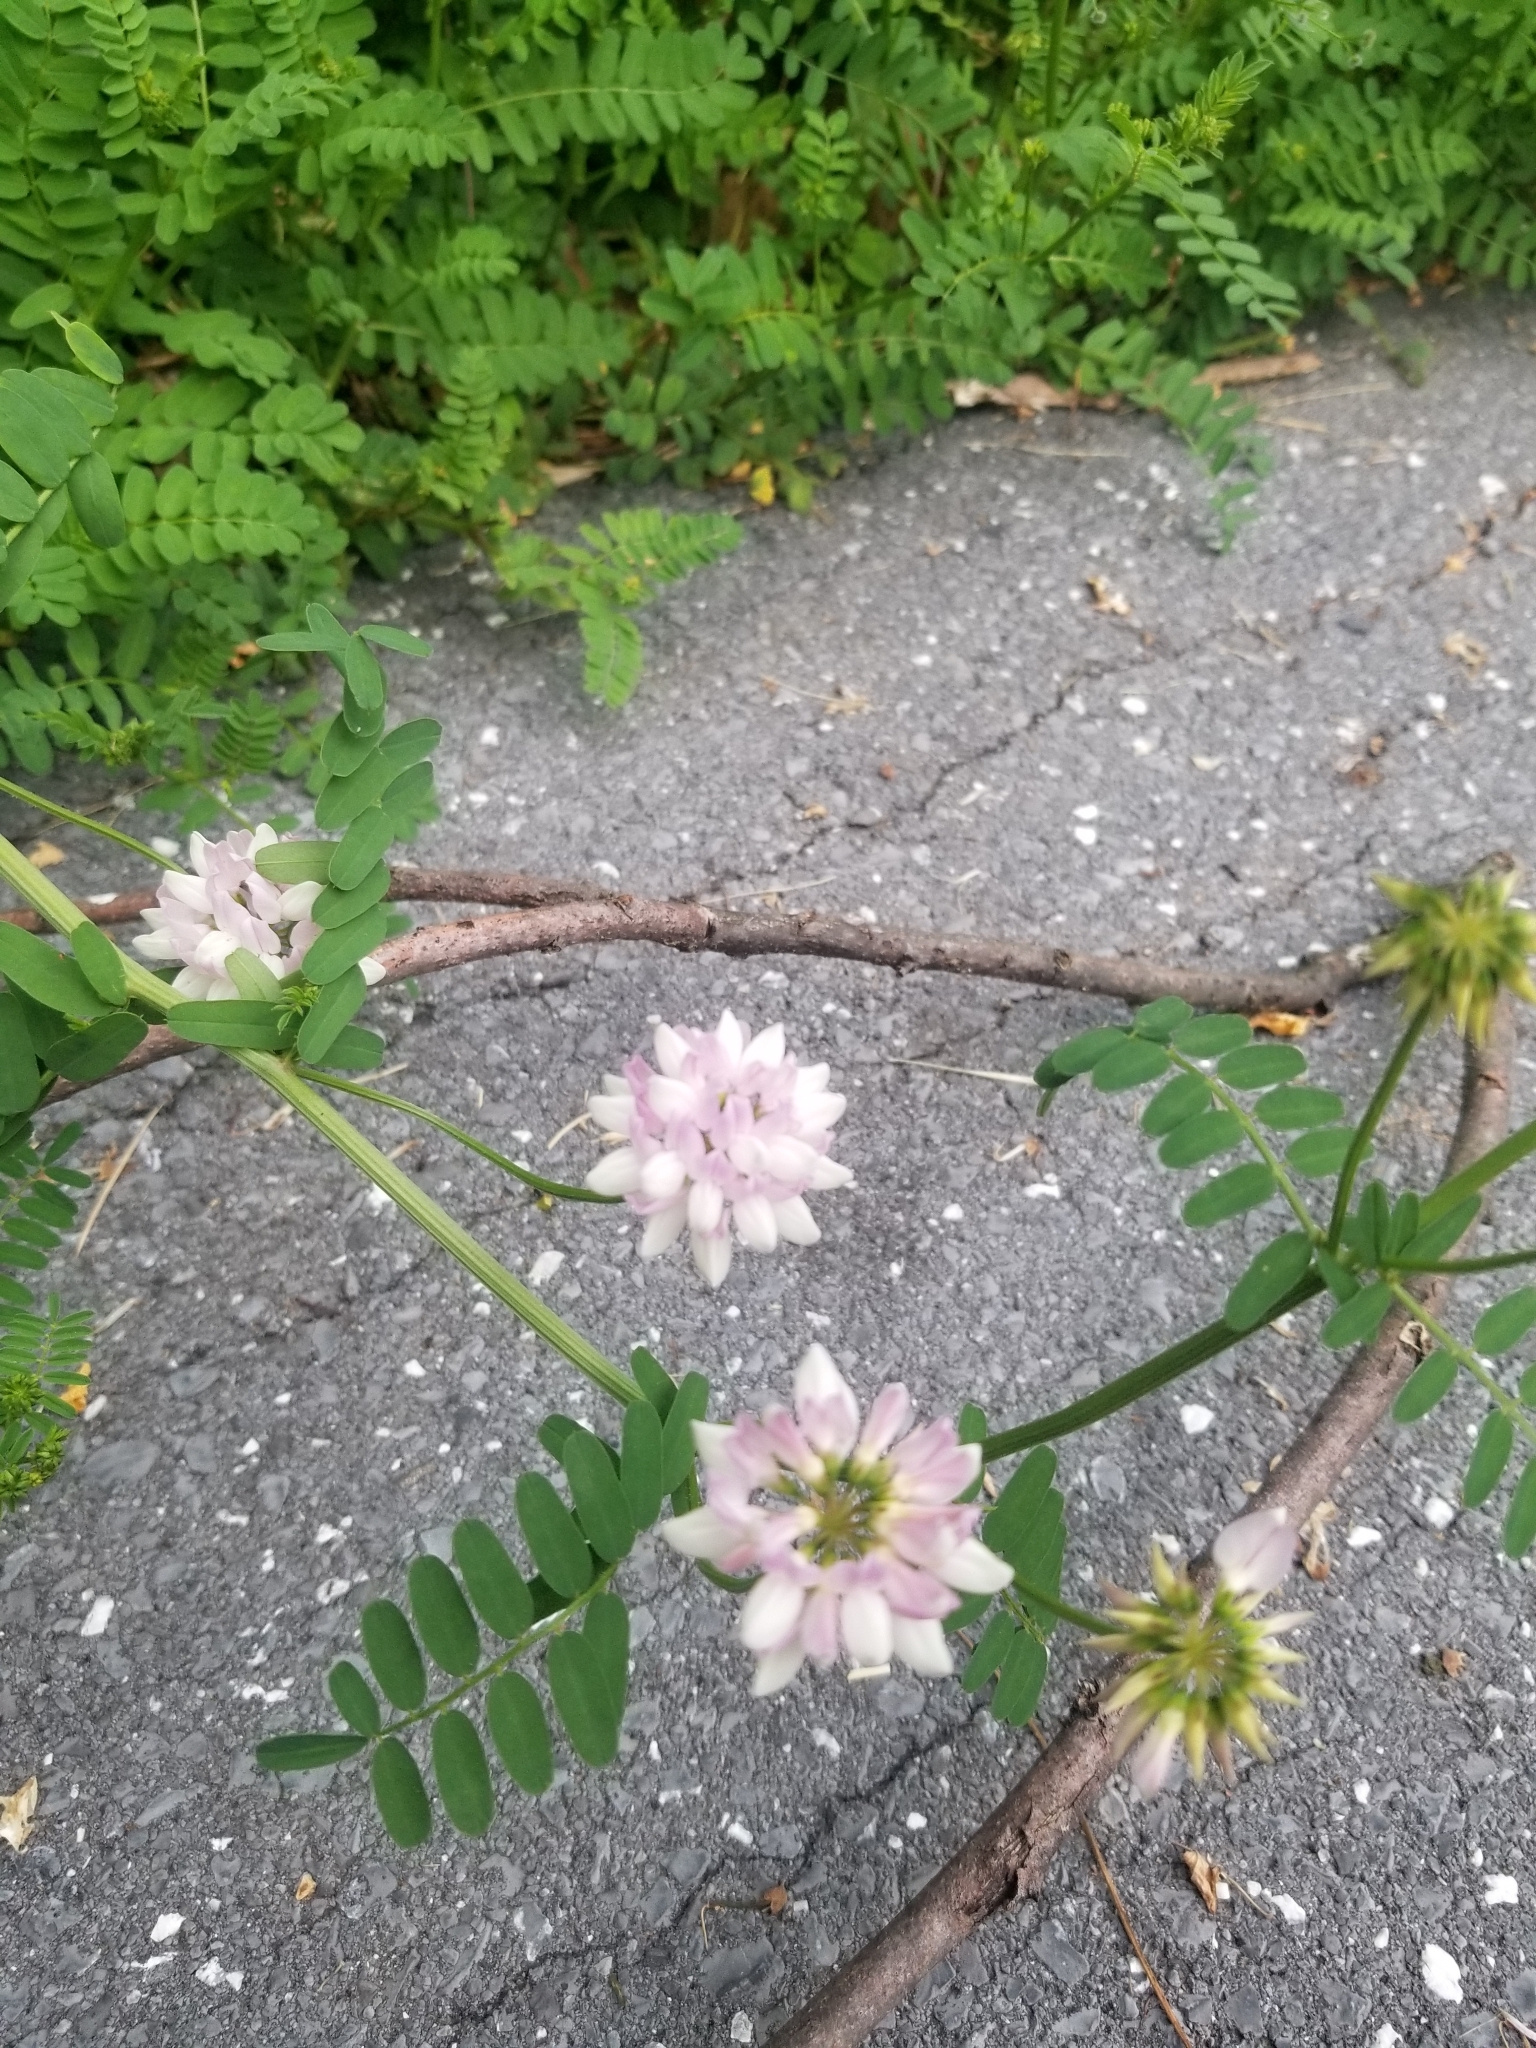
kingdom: Plantae
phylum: Tracheophyta
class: Magnoliopsida
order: Fabales
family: Fabaceae
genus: Coronilla
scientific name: Coronilla varia
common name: Crownvetch
